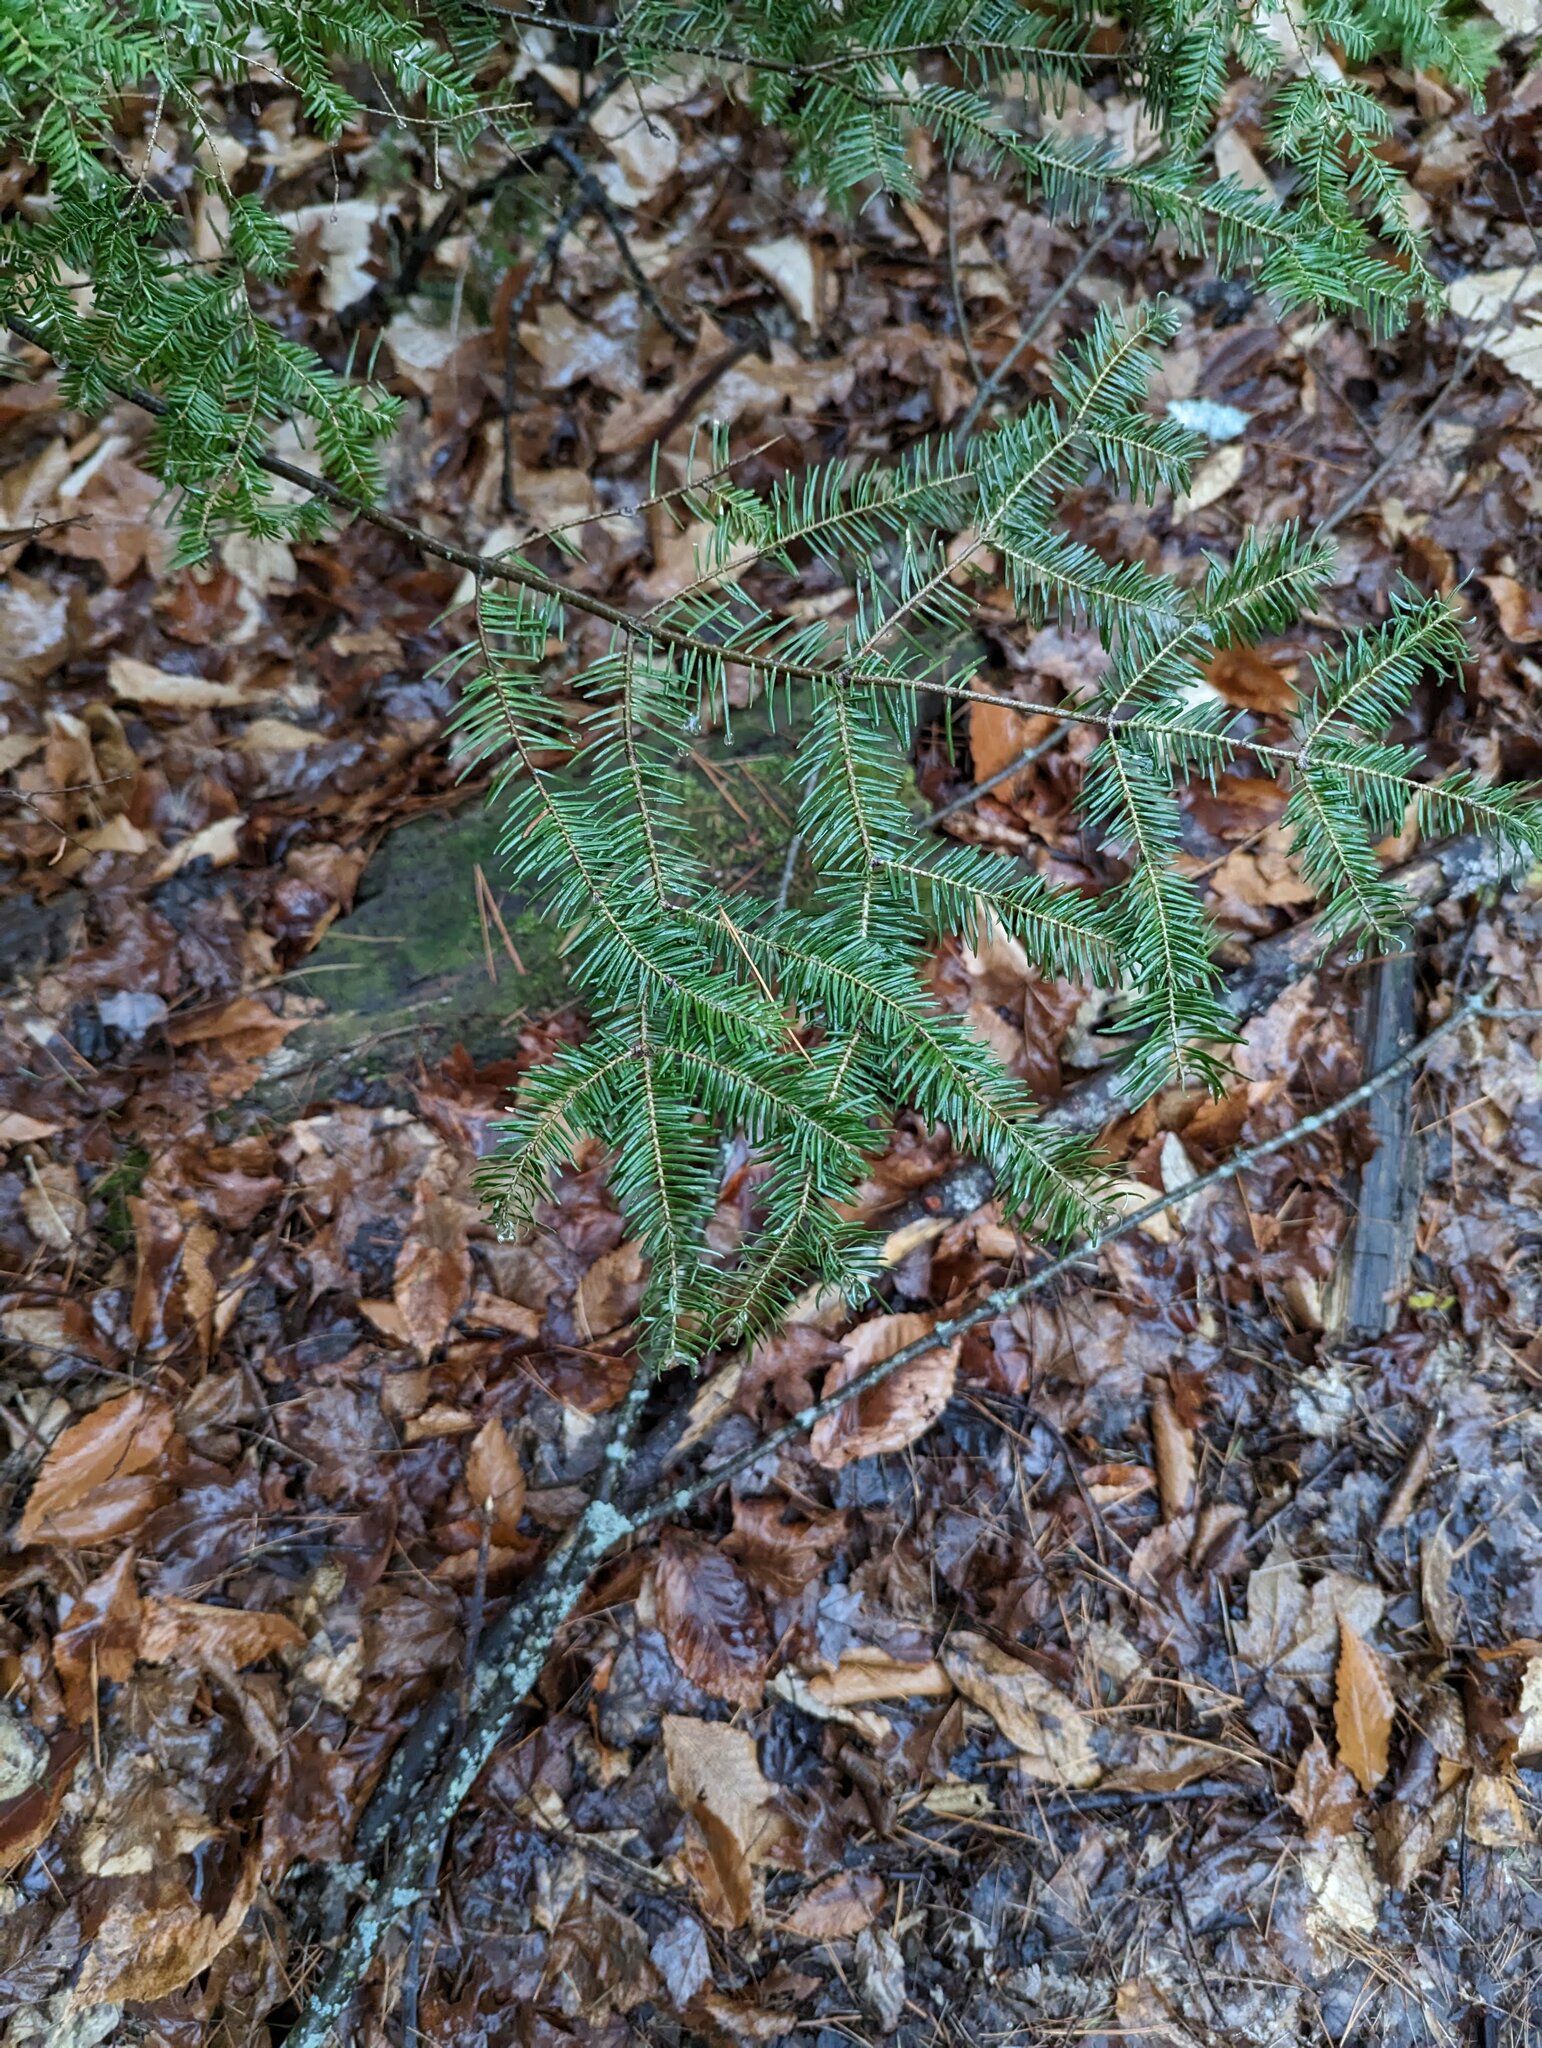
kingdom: Plantae
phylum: Tracheophyta
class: Pinopsida
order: Pinales
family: Pinaceae
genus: Abies
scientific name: Abies balsamea
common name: Balsam fir
